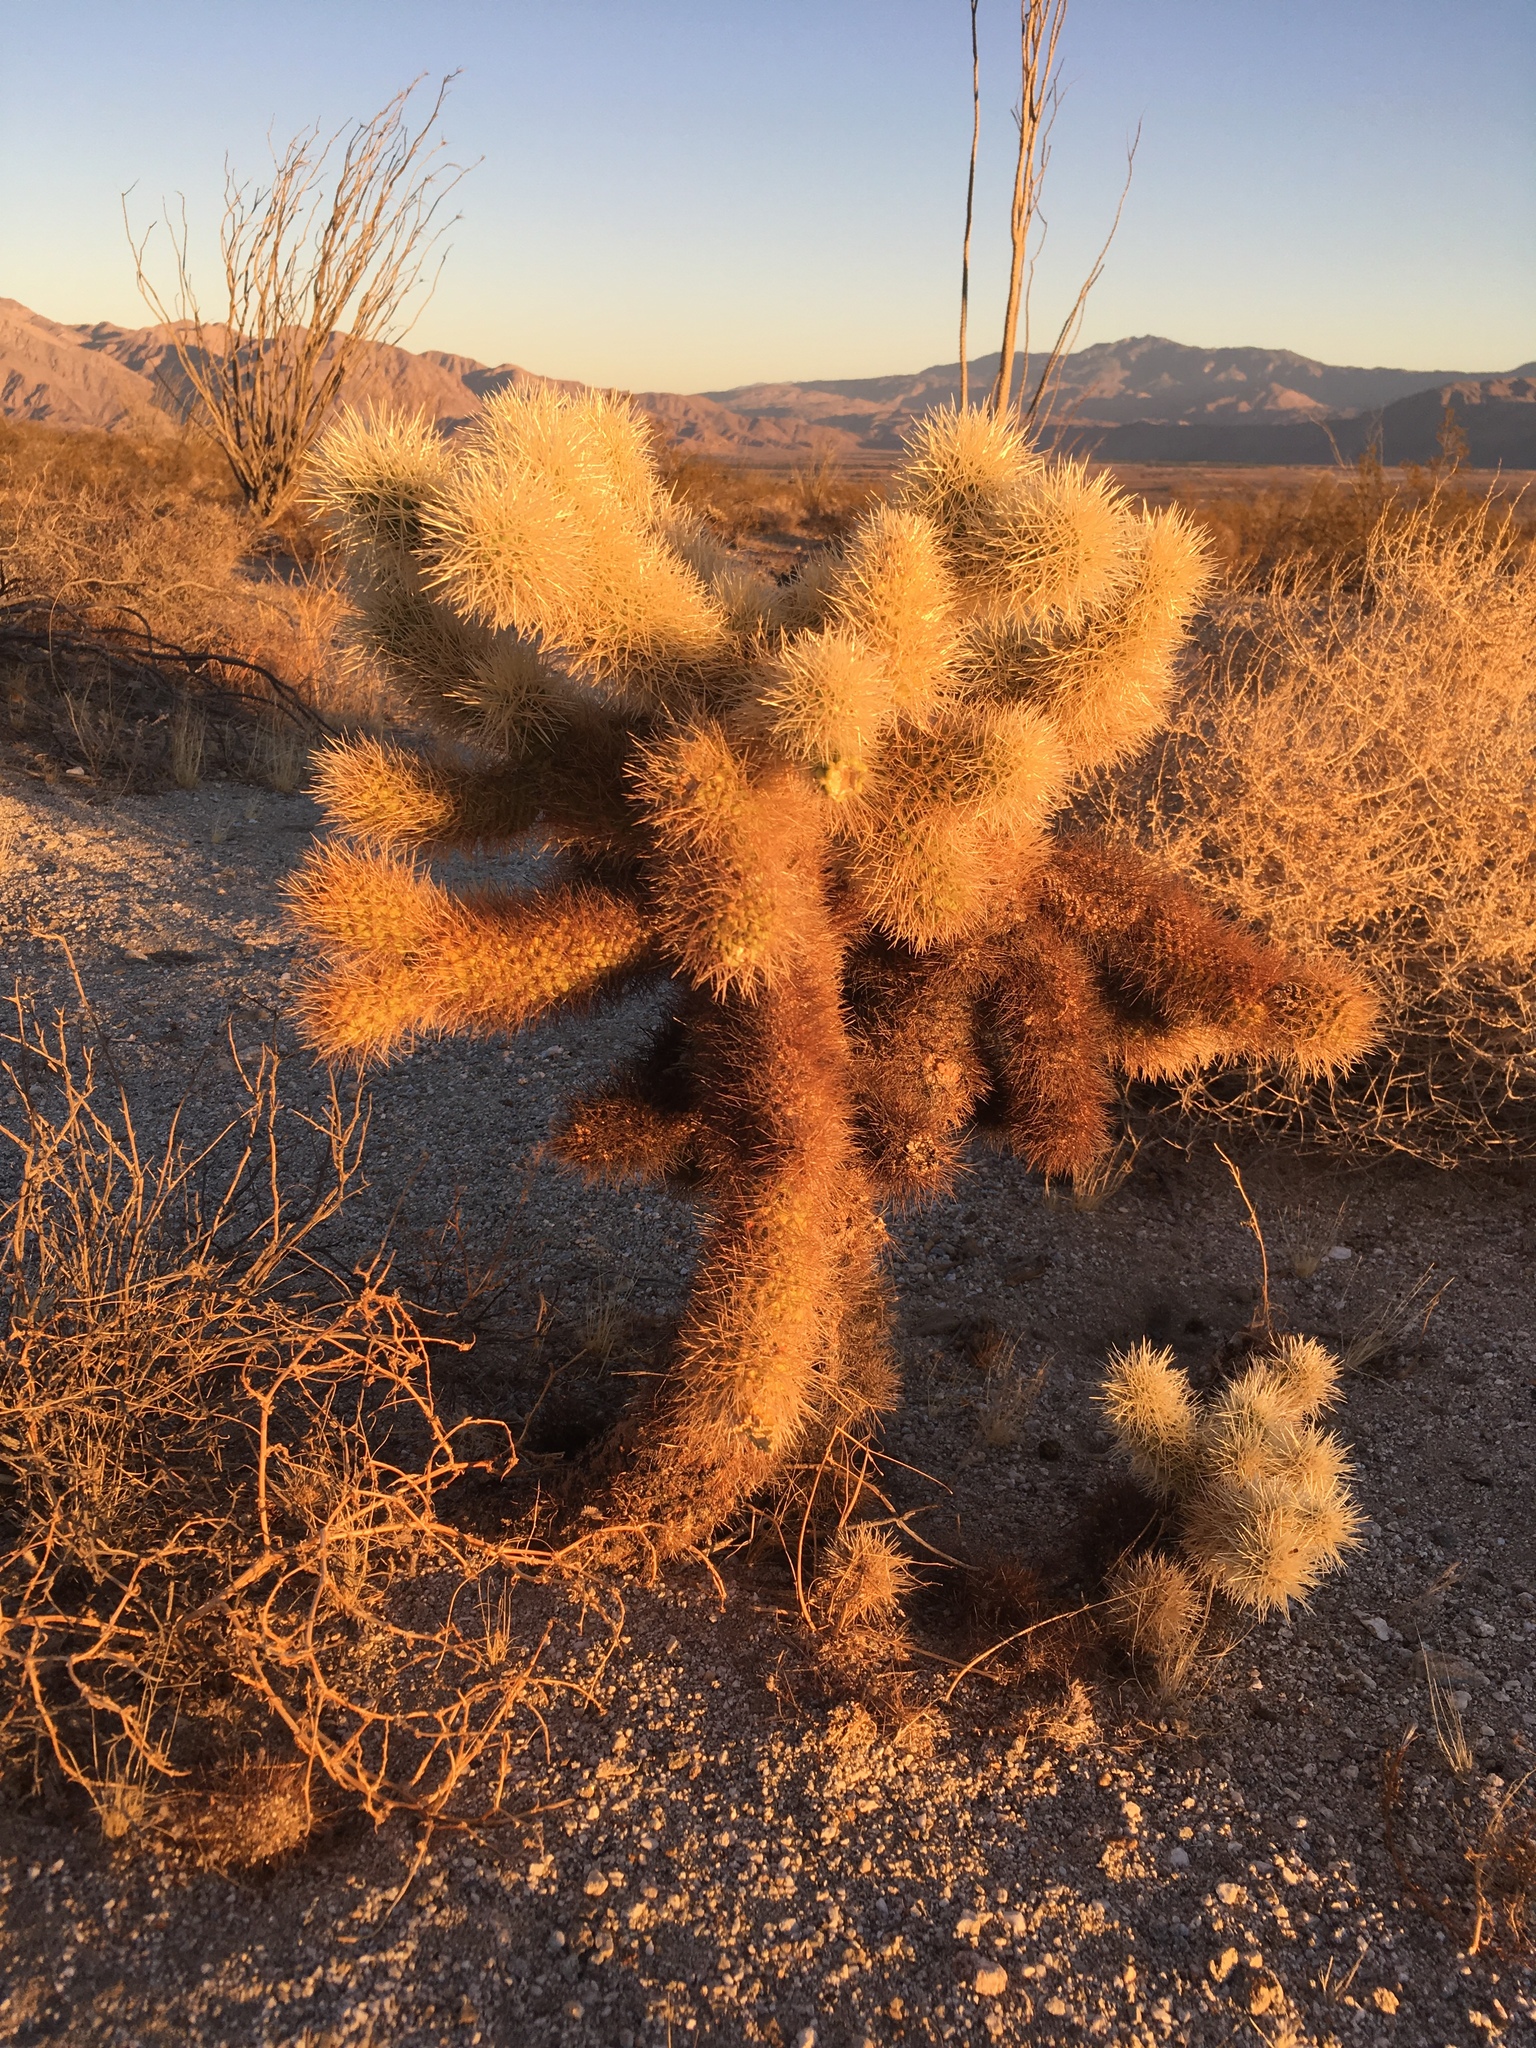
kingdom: Plantae
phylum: Tracheophyta
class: Magnoliopsida
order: Caryophyllales
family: Cactaceae
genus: Cylindropuntia
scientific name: Cylindropuntia fosbergii
